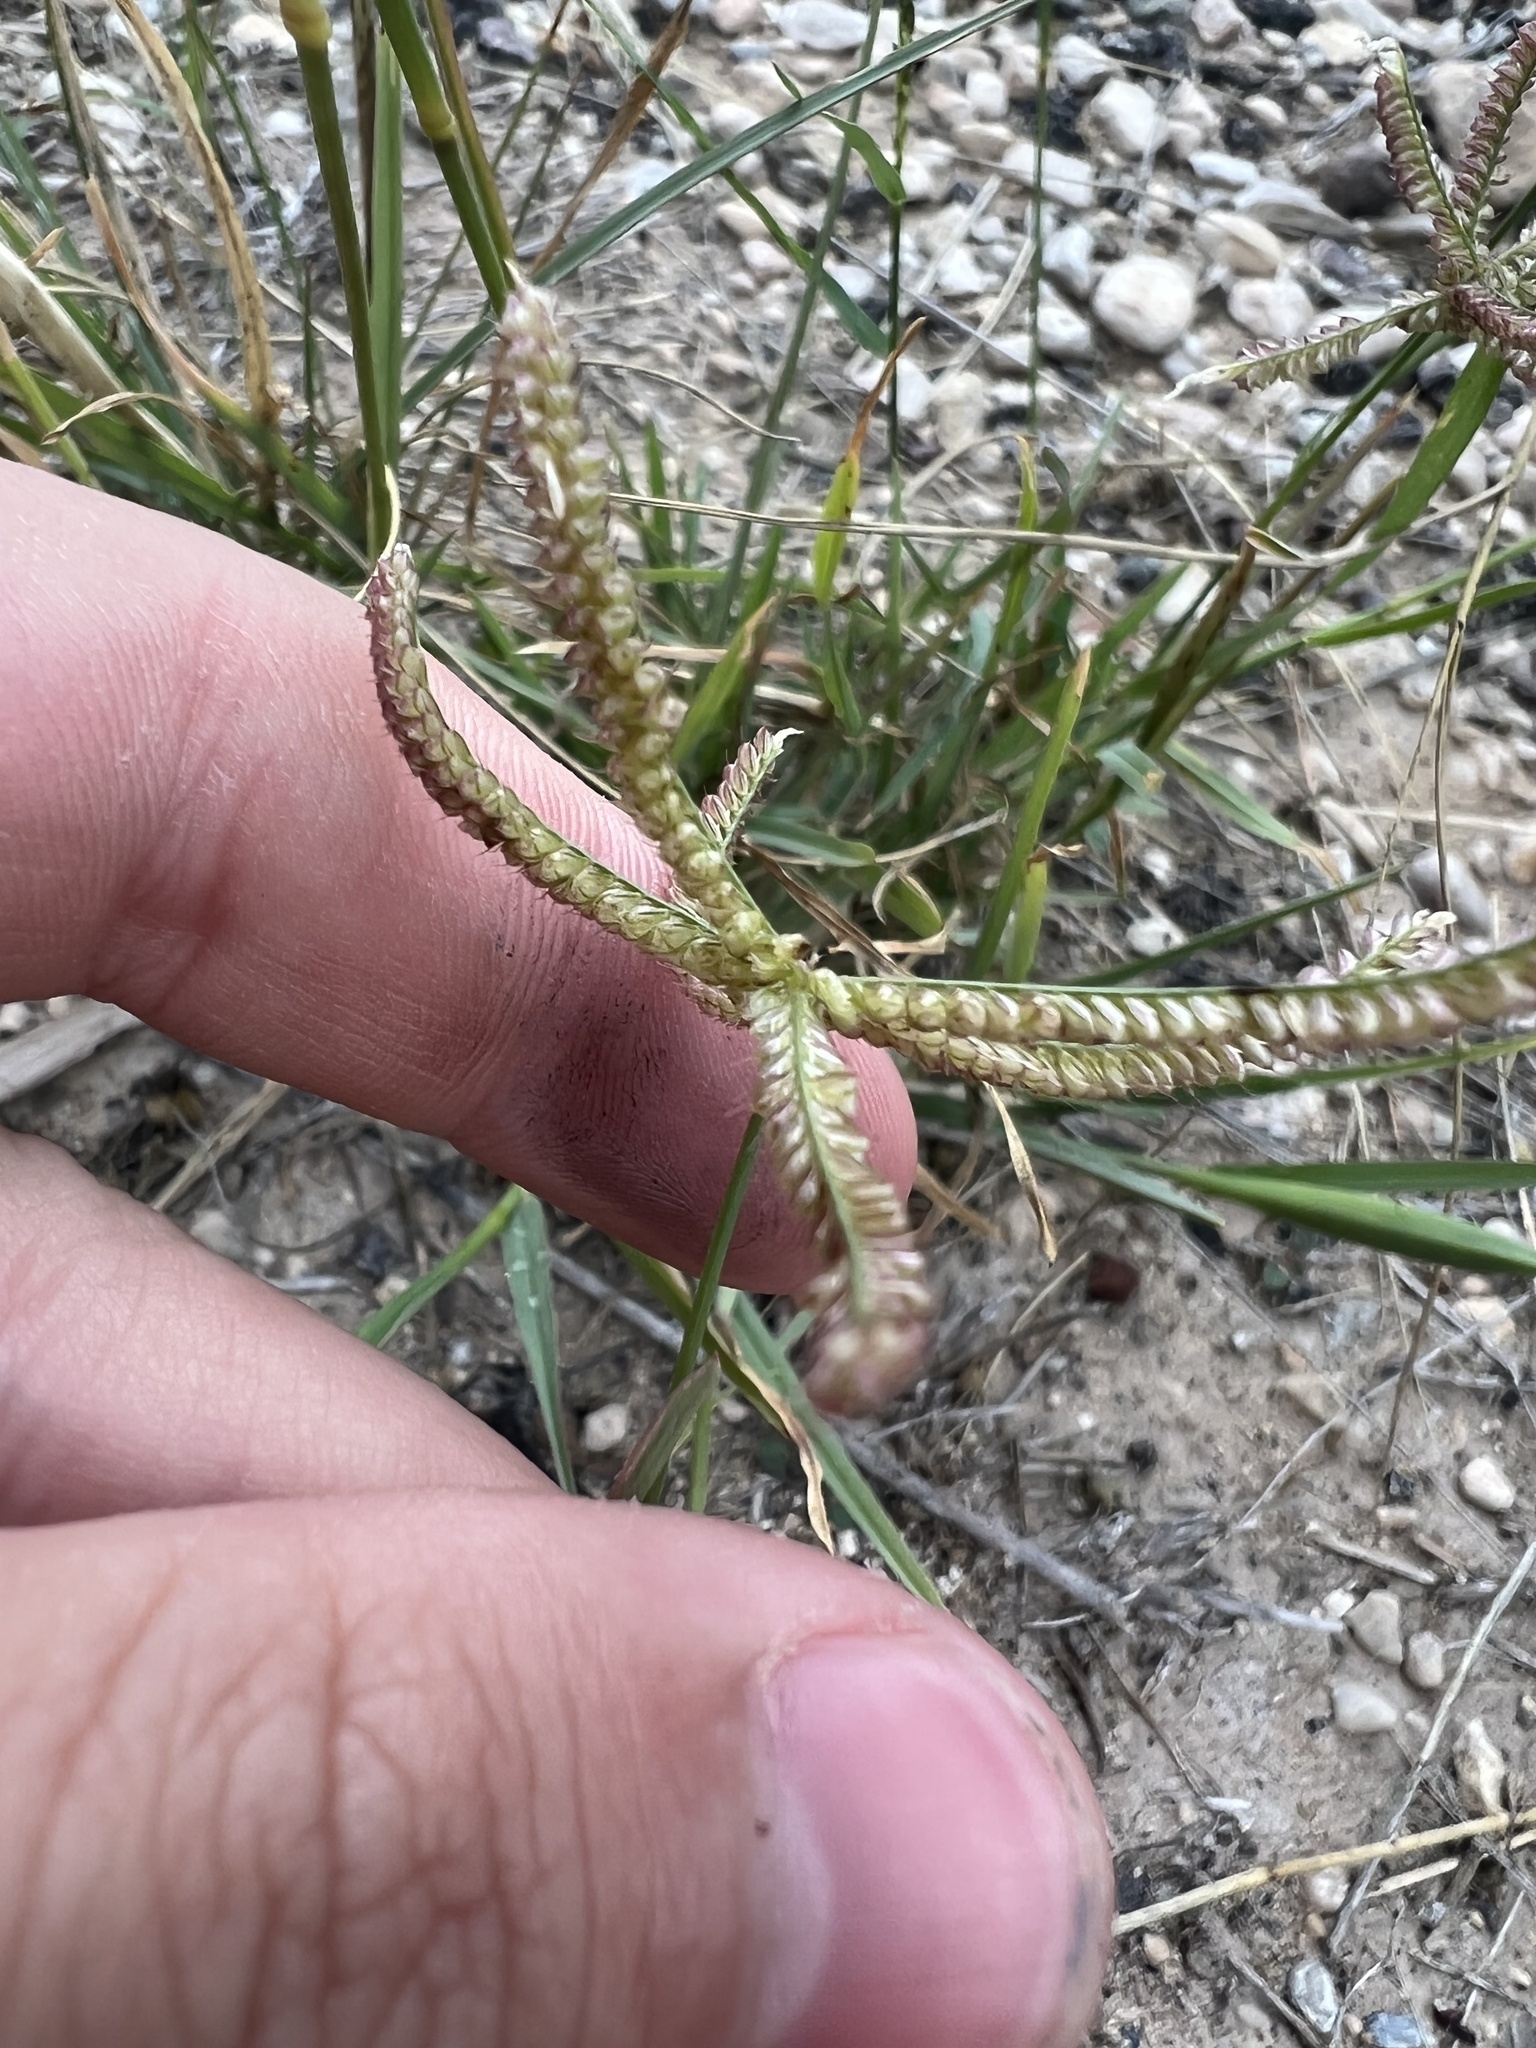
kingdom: Plantae
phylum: Tracheophyta
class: Liliopsida
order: Poales
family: Poaceae
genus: Chloris
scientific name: Chloris cucullata
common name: Hooded windmill grass
